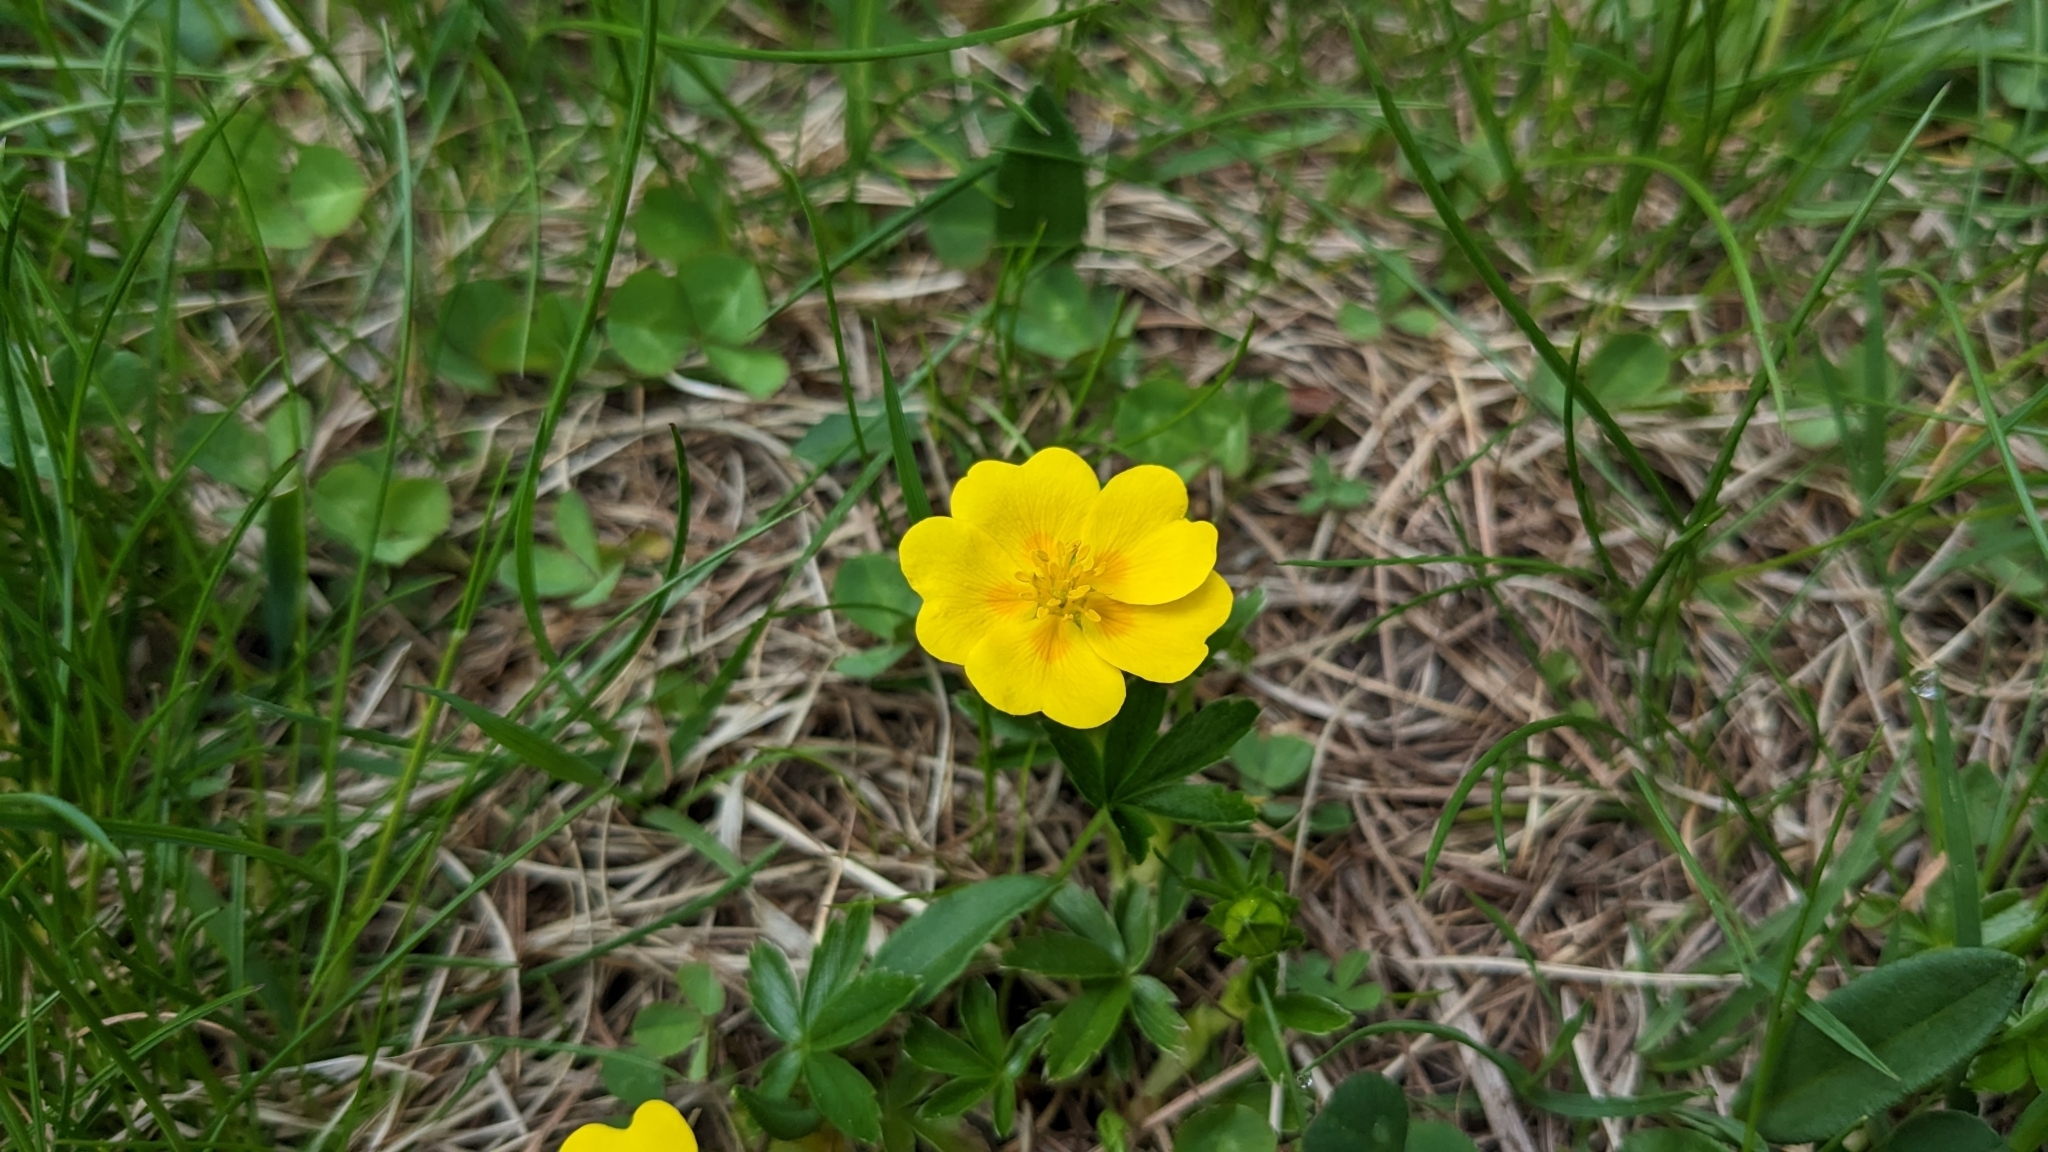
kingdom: Plantae
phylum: Tracheophyta
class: Magnoliopsida
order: Rosales
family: Rosaceae
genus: Potentilla
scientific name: Potentilla aurea
